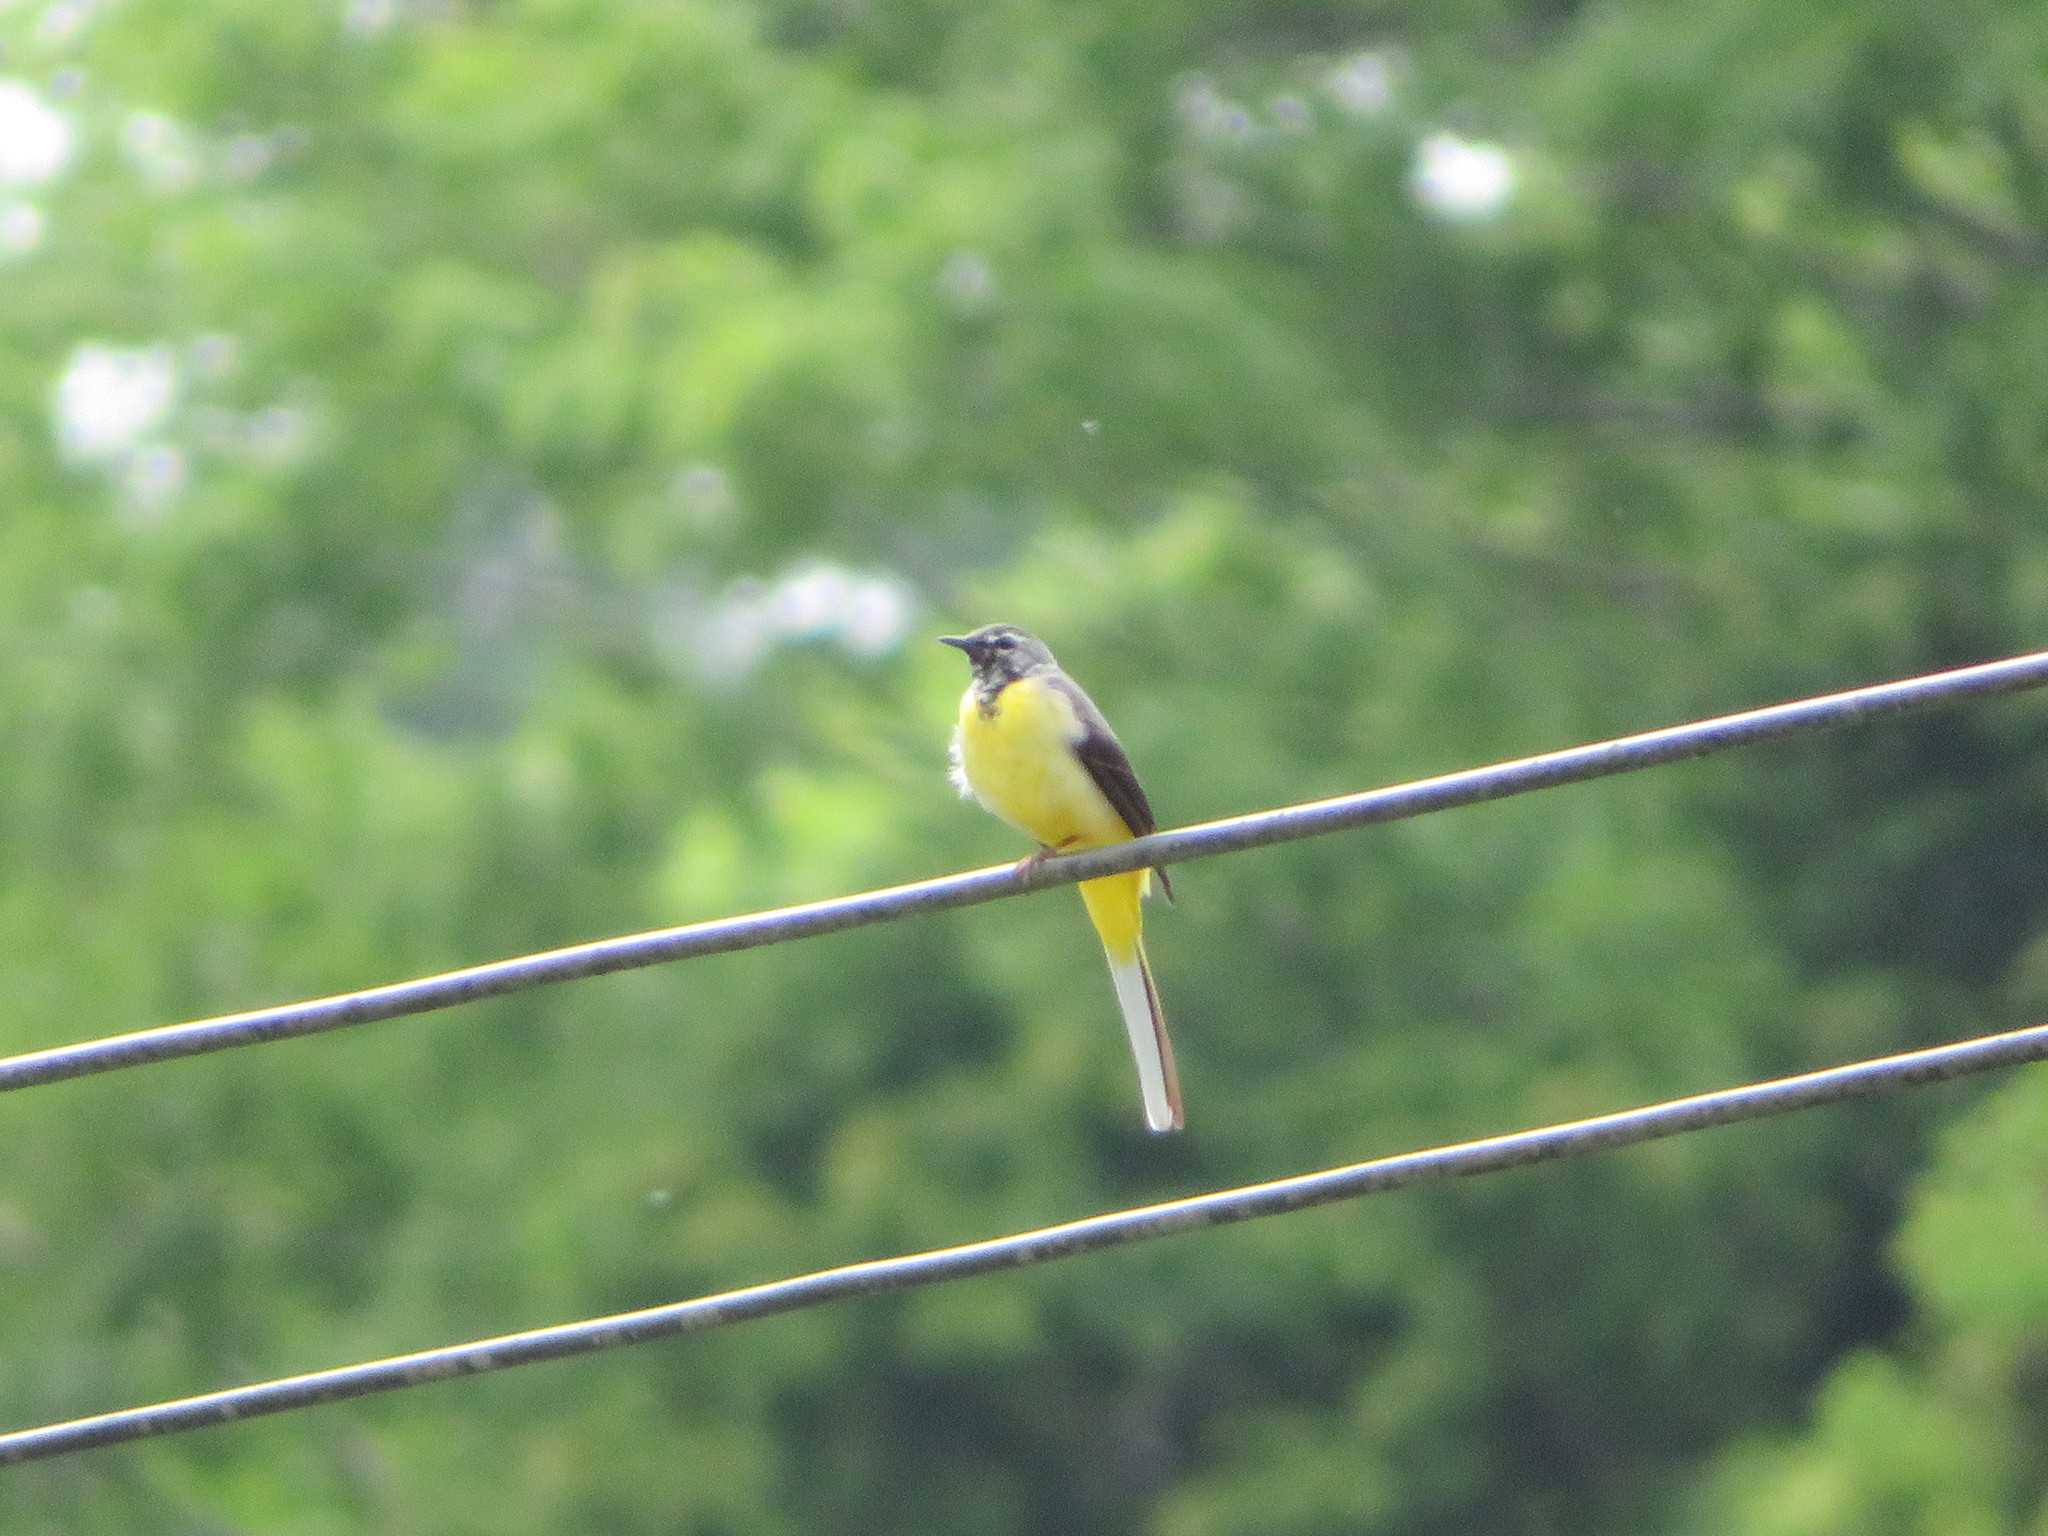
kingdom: Animalia
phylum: Chordata
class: Aves
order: Passeriformes
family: Motacillidae
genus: Motacilla
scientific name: Motacilla cinerea
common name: Grey wagtail
